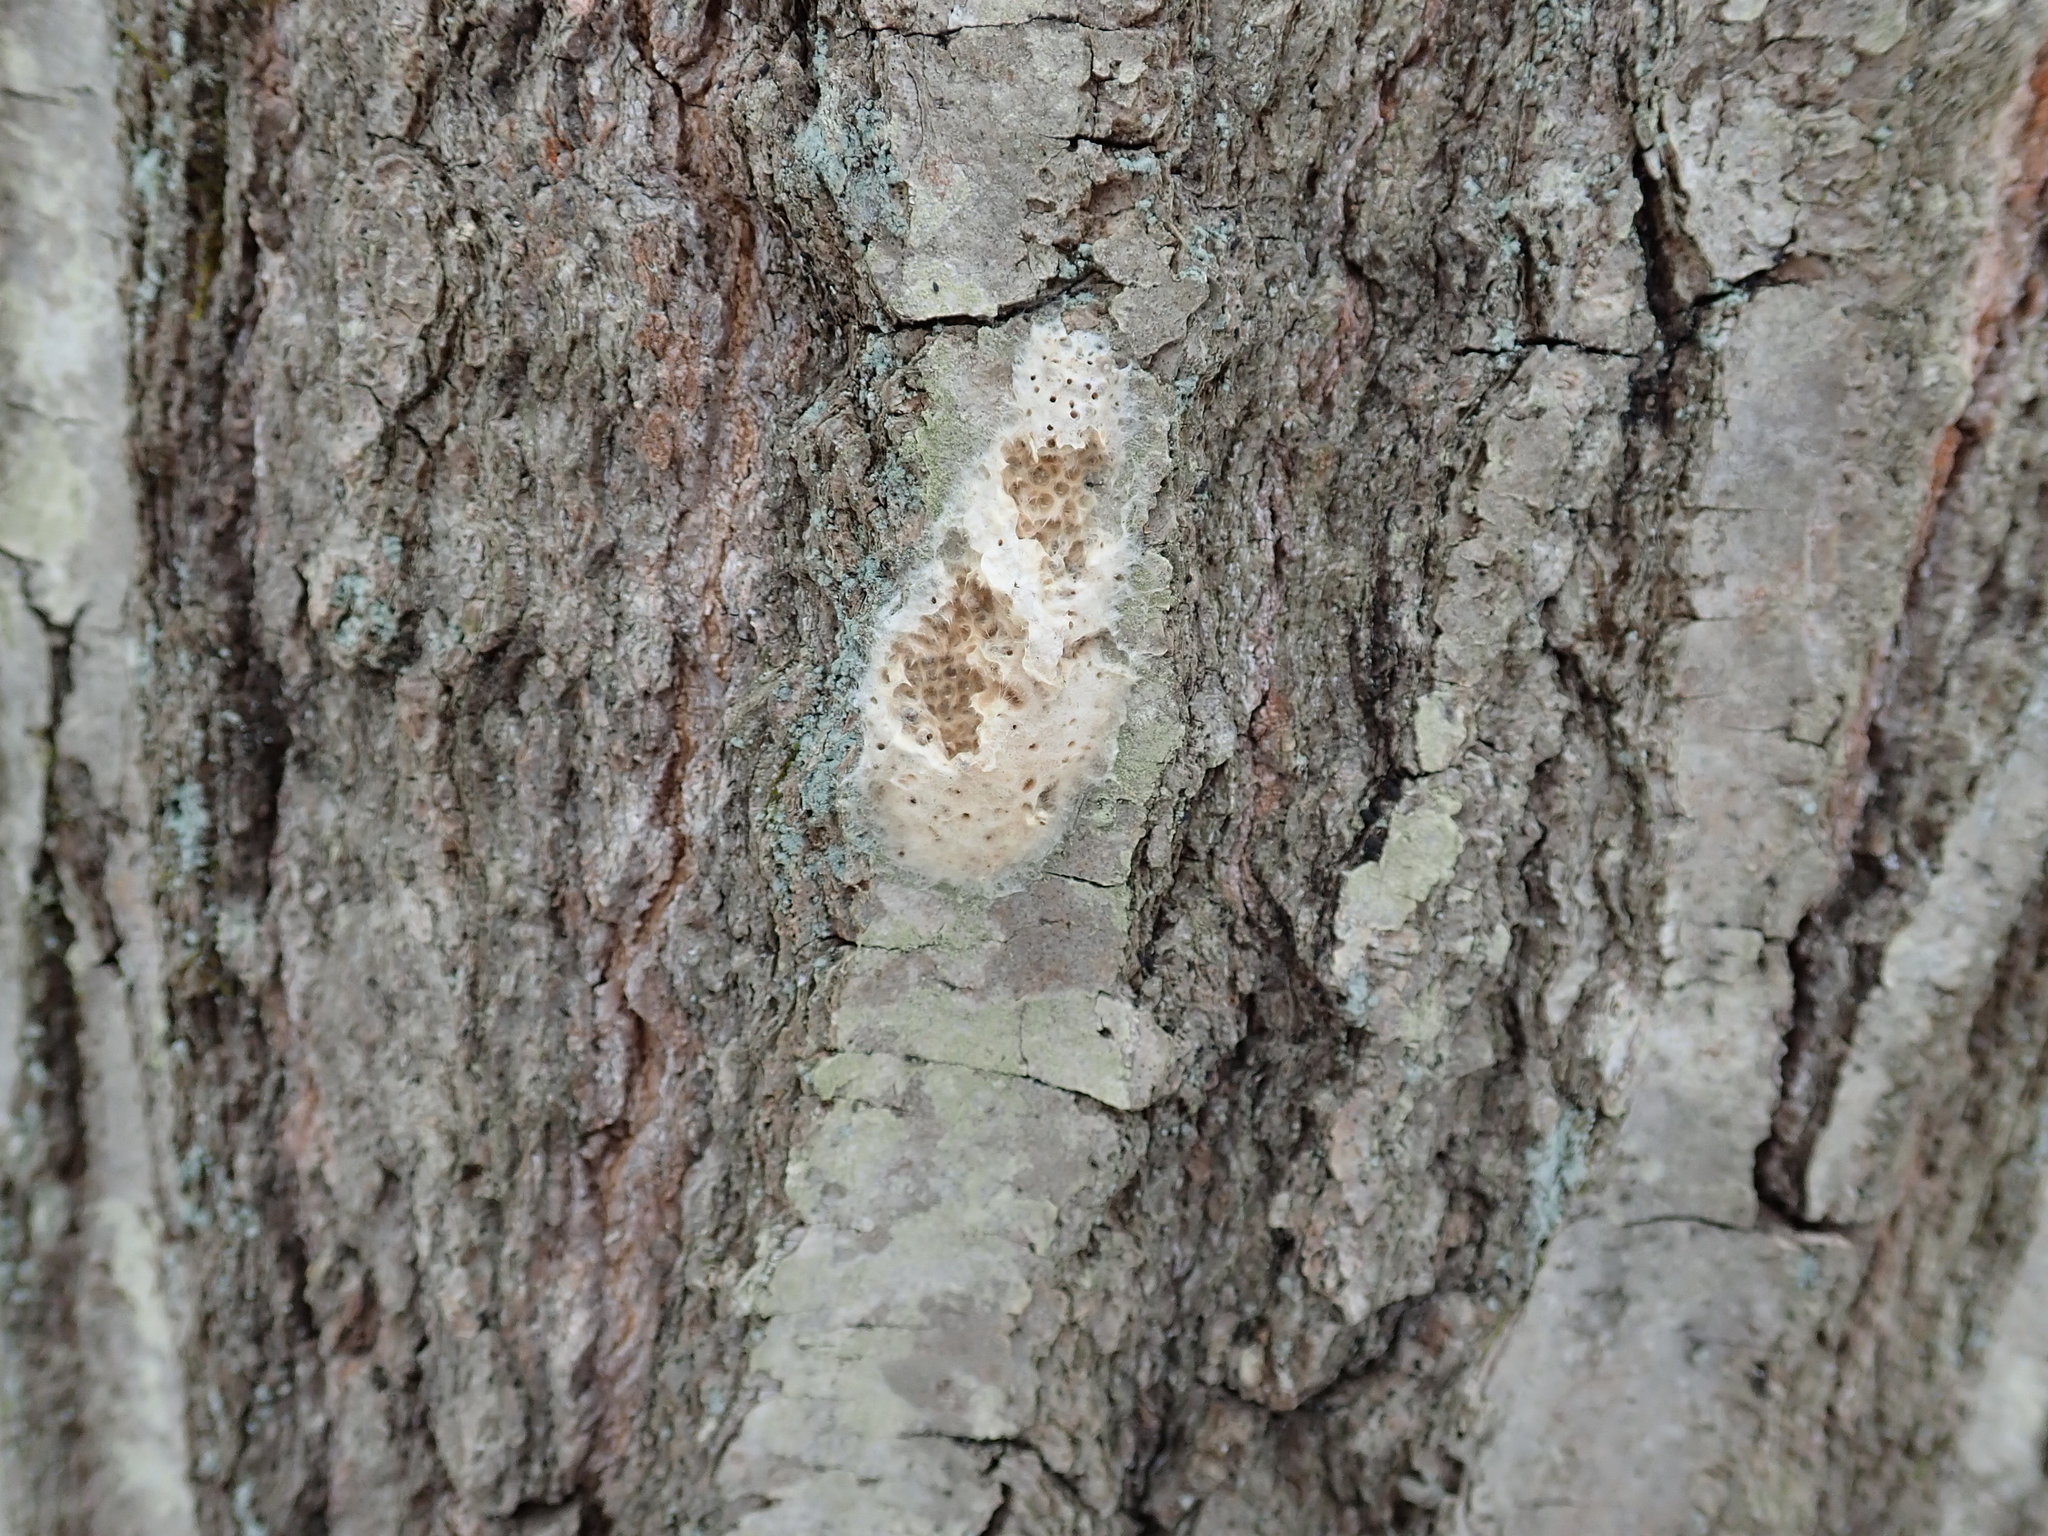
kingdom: Animalia
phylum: Arthropoda
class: Insecta
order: Lepidoptera
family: Erebidae
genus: Lymantria
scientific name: Lymantria dispar
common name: Gypsy moth
